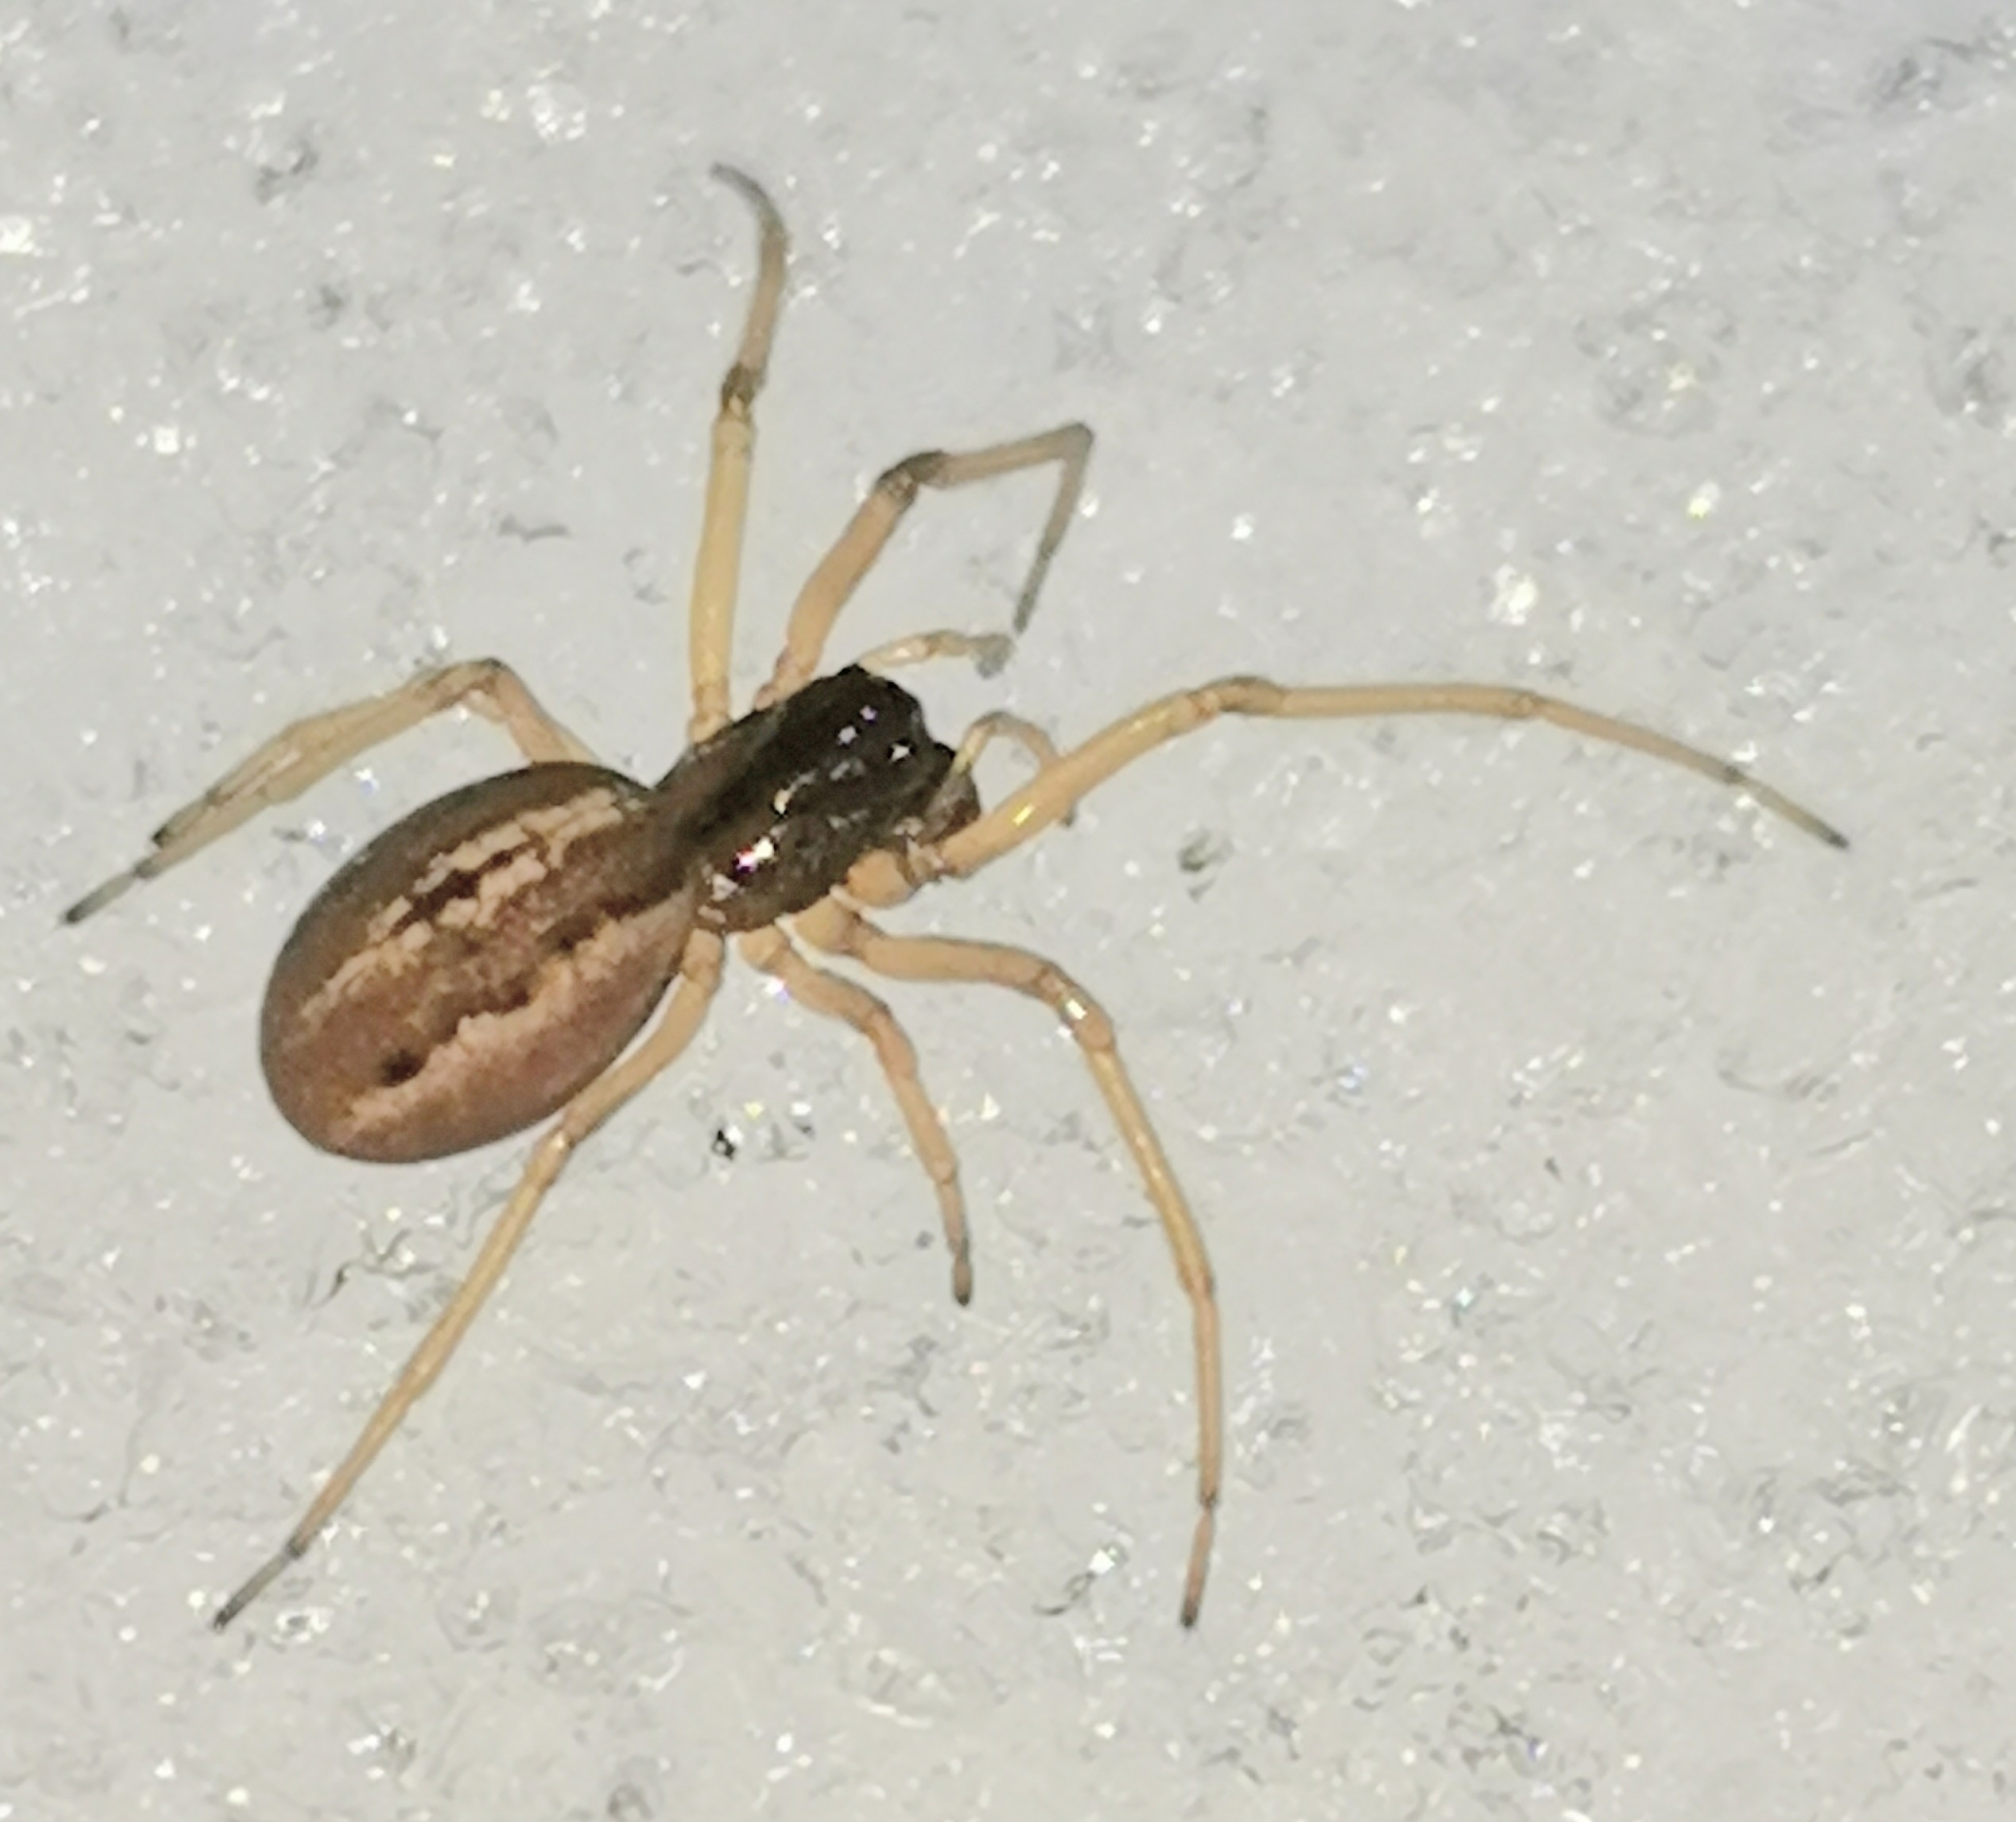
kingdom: Animalia
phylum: Arthropoda
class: Arachnida
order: Araneae
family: Tetragnathidae
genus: Pachygnatha
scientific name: Pachygnatha clercki
